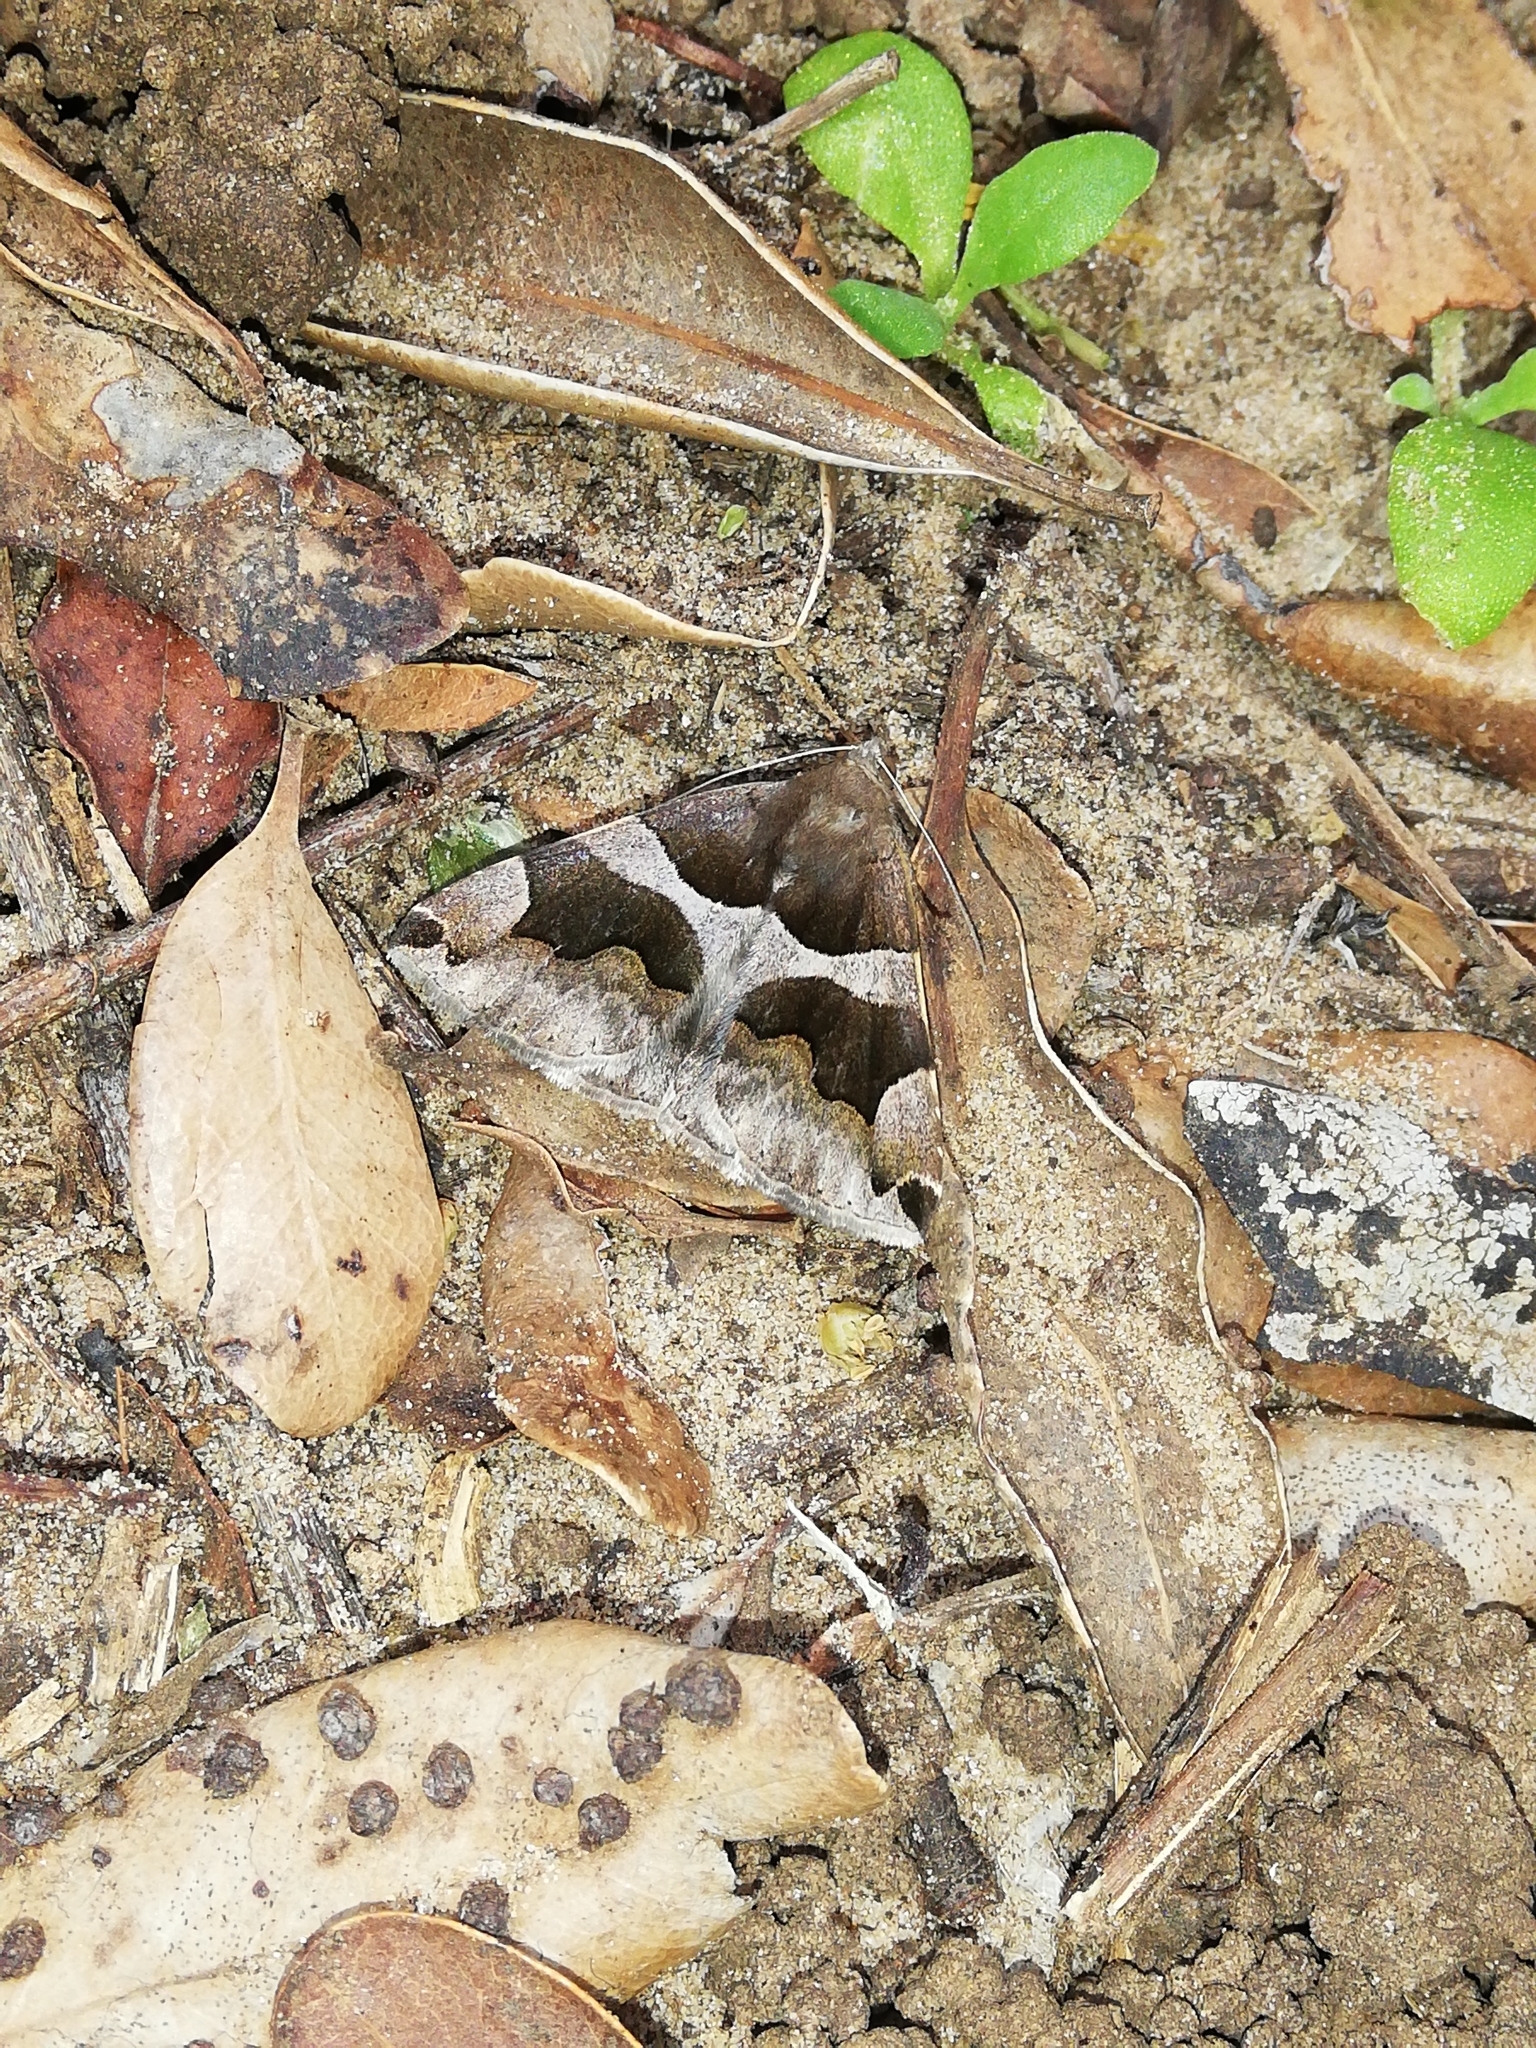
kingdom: Animalia
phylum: Arthropoda
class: Insecta
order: Lepidoptera
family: Erebidae
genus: Dysgonia
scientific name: Dysgonia torrida
